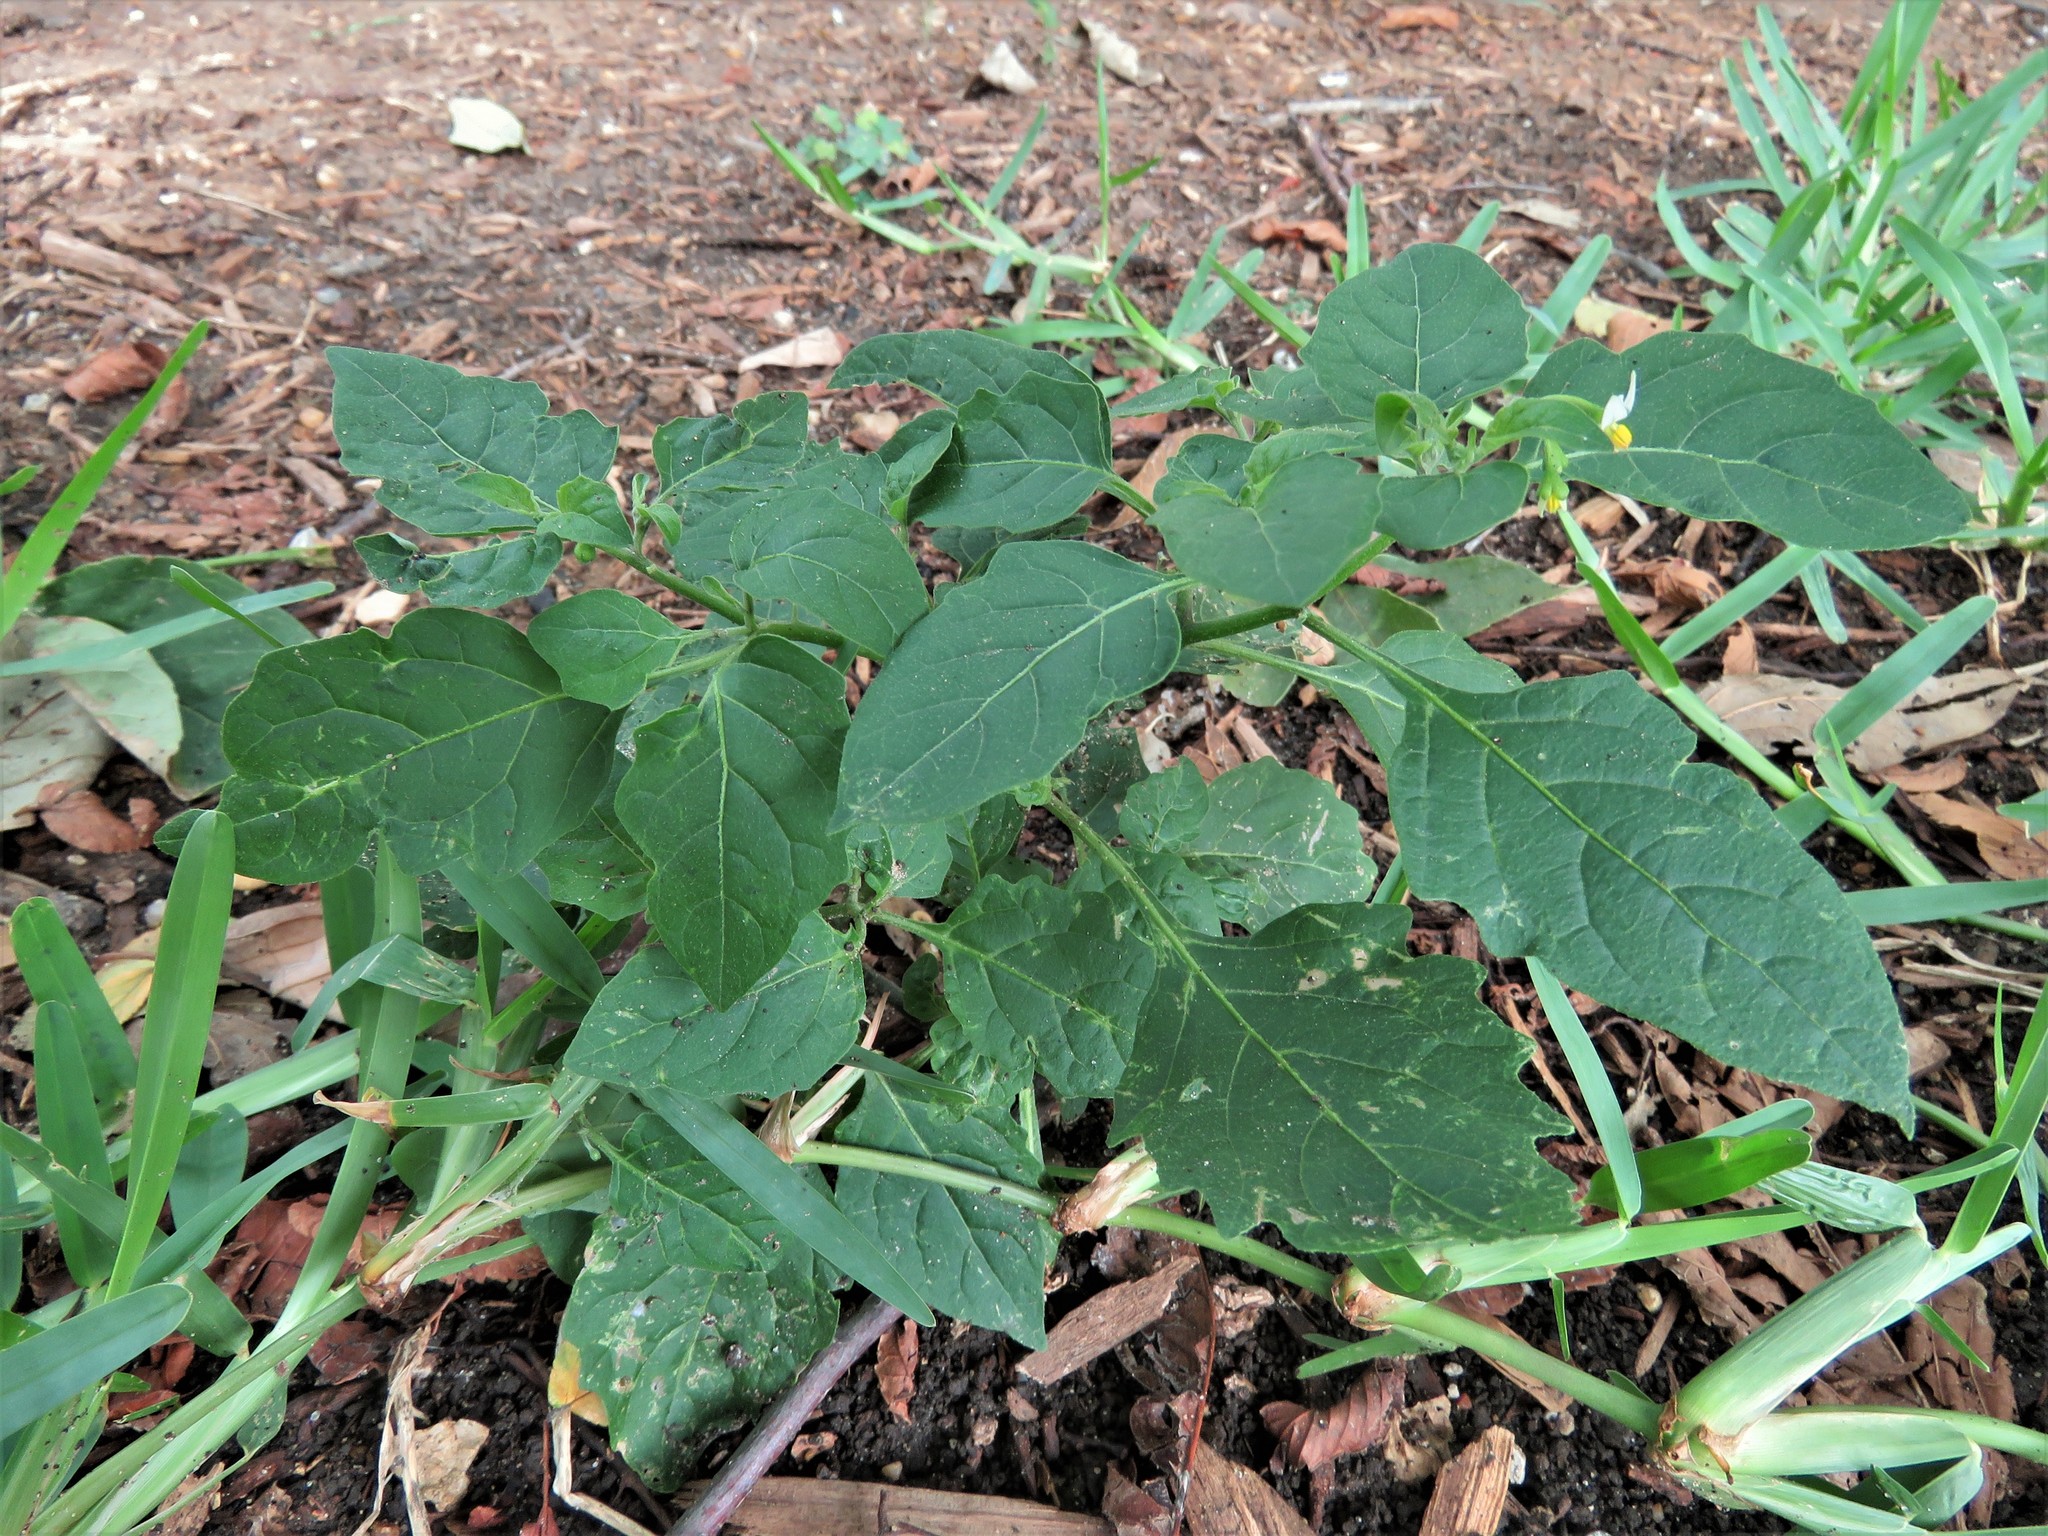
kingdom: Plantae
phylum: Tracheophyta
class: Magnoliopsida
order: Solanales
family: Solanaceae
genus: Solanum
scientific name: Solanum emulans
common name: Eastern black nightshade
